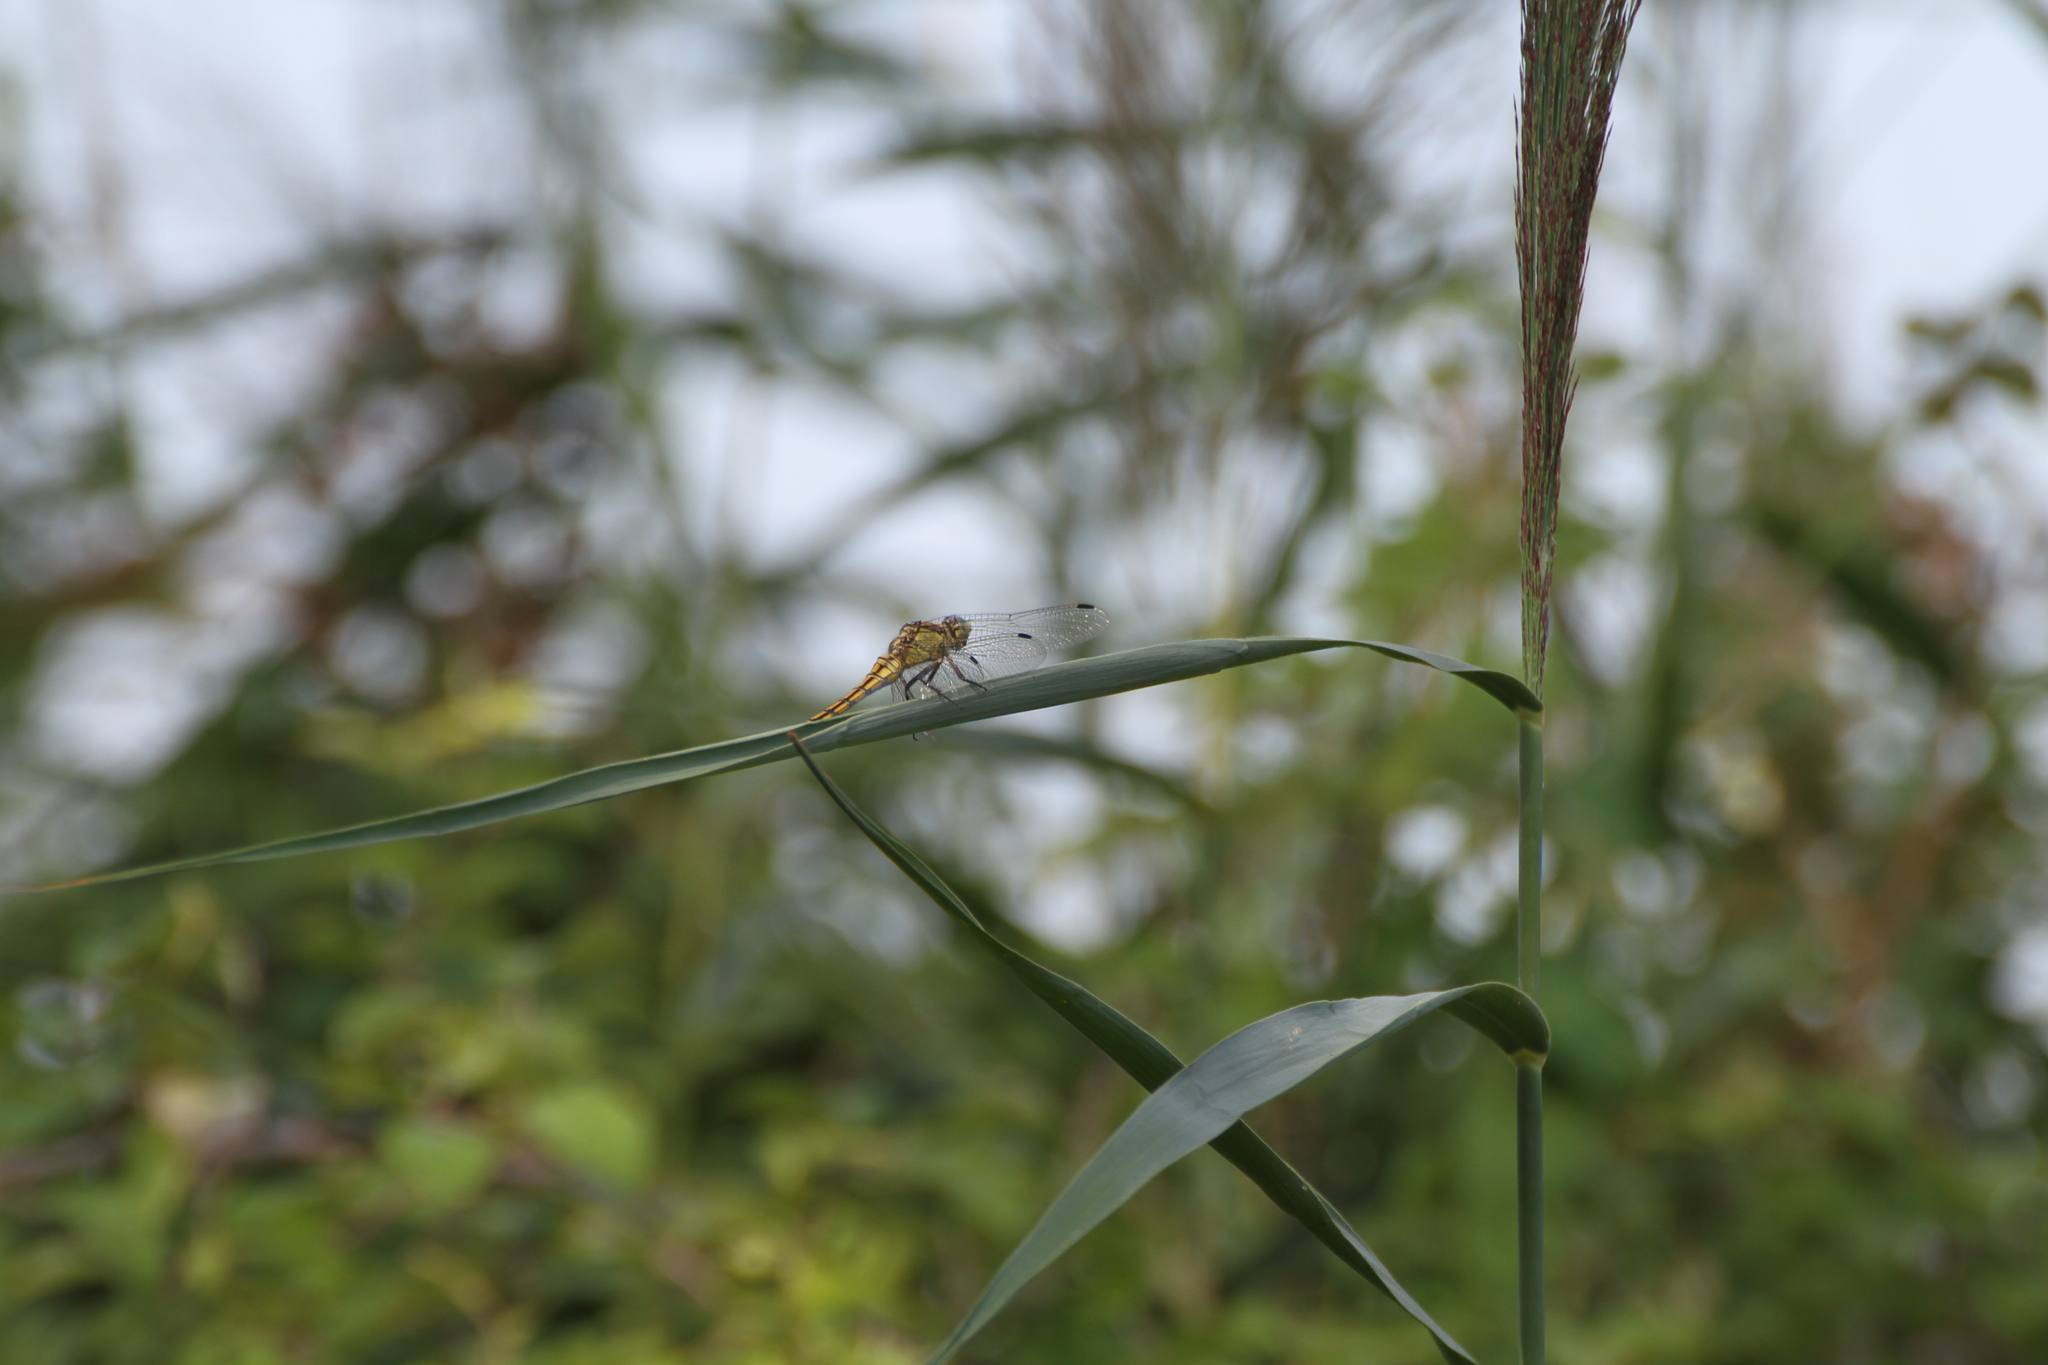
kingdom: Animalia
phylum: Arthropoda
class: Insecta
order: Odonata
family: Libellulidae
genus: Orthetrum
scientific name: Orthetrum cancellatum
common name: Black-tailed skimmer
